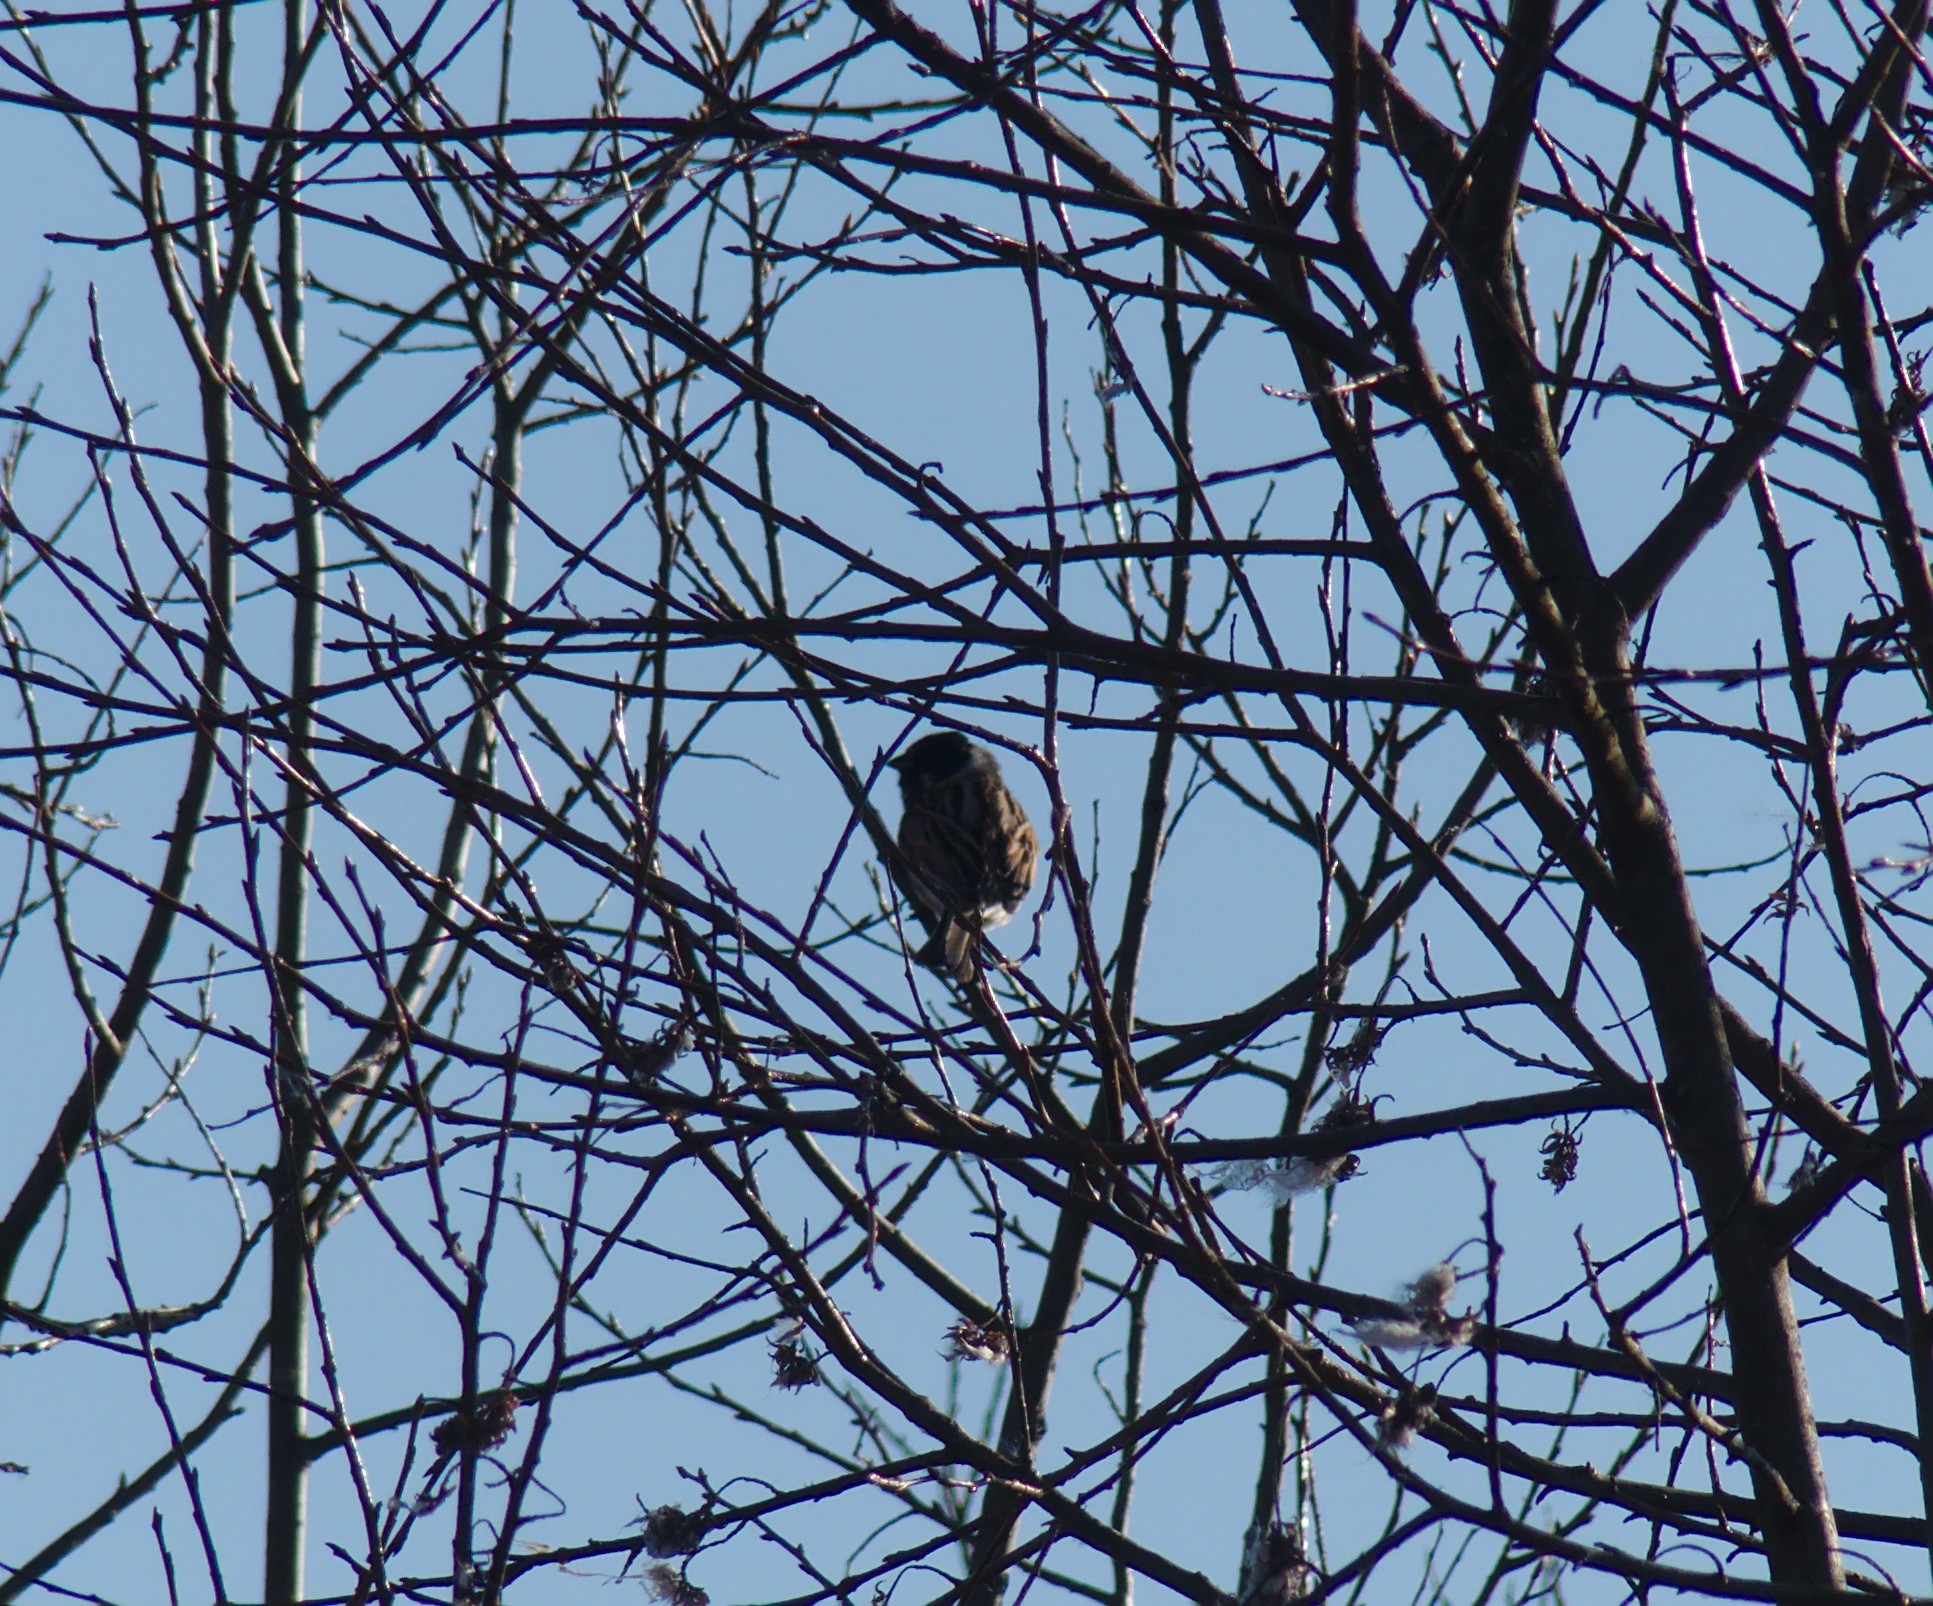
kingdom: Animalia
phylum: Chordata
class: Aves
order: Passeriformes
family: Emberizidae
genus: Emberiza
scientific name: Emberiza schoeniclus
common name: Reed bunting
